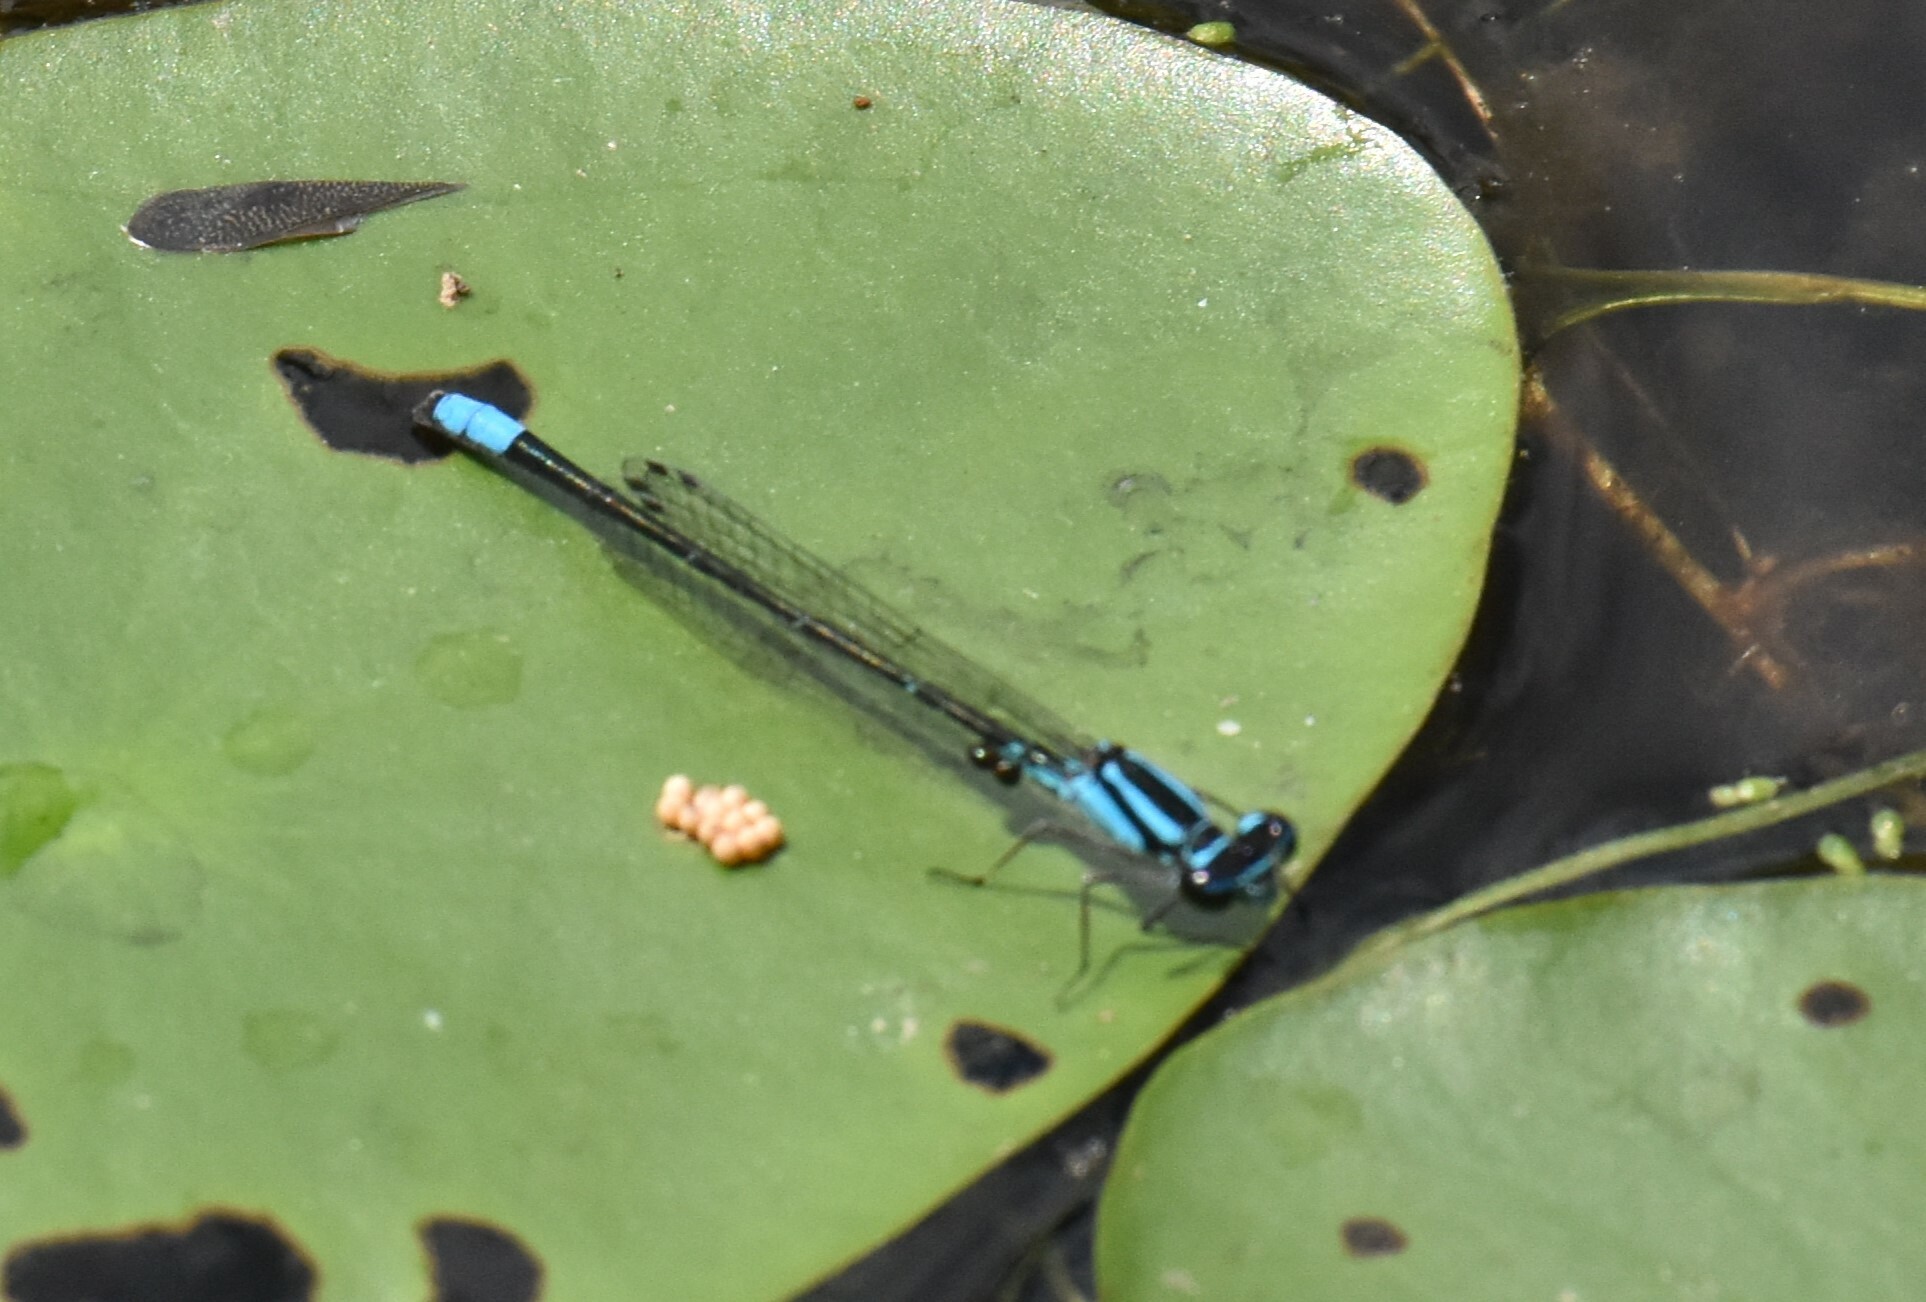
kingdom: Animalia
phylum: Arthropoda
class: Insecta
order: Odonata
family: Coenagrionidae
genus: Enallagma
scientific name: Enallagma geminatum
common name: Skimming bluet
